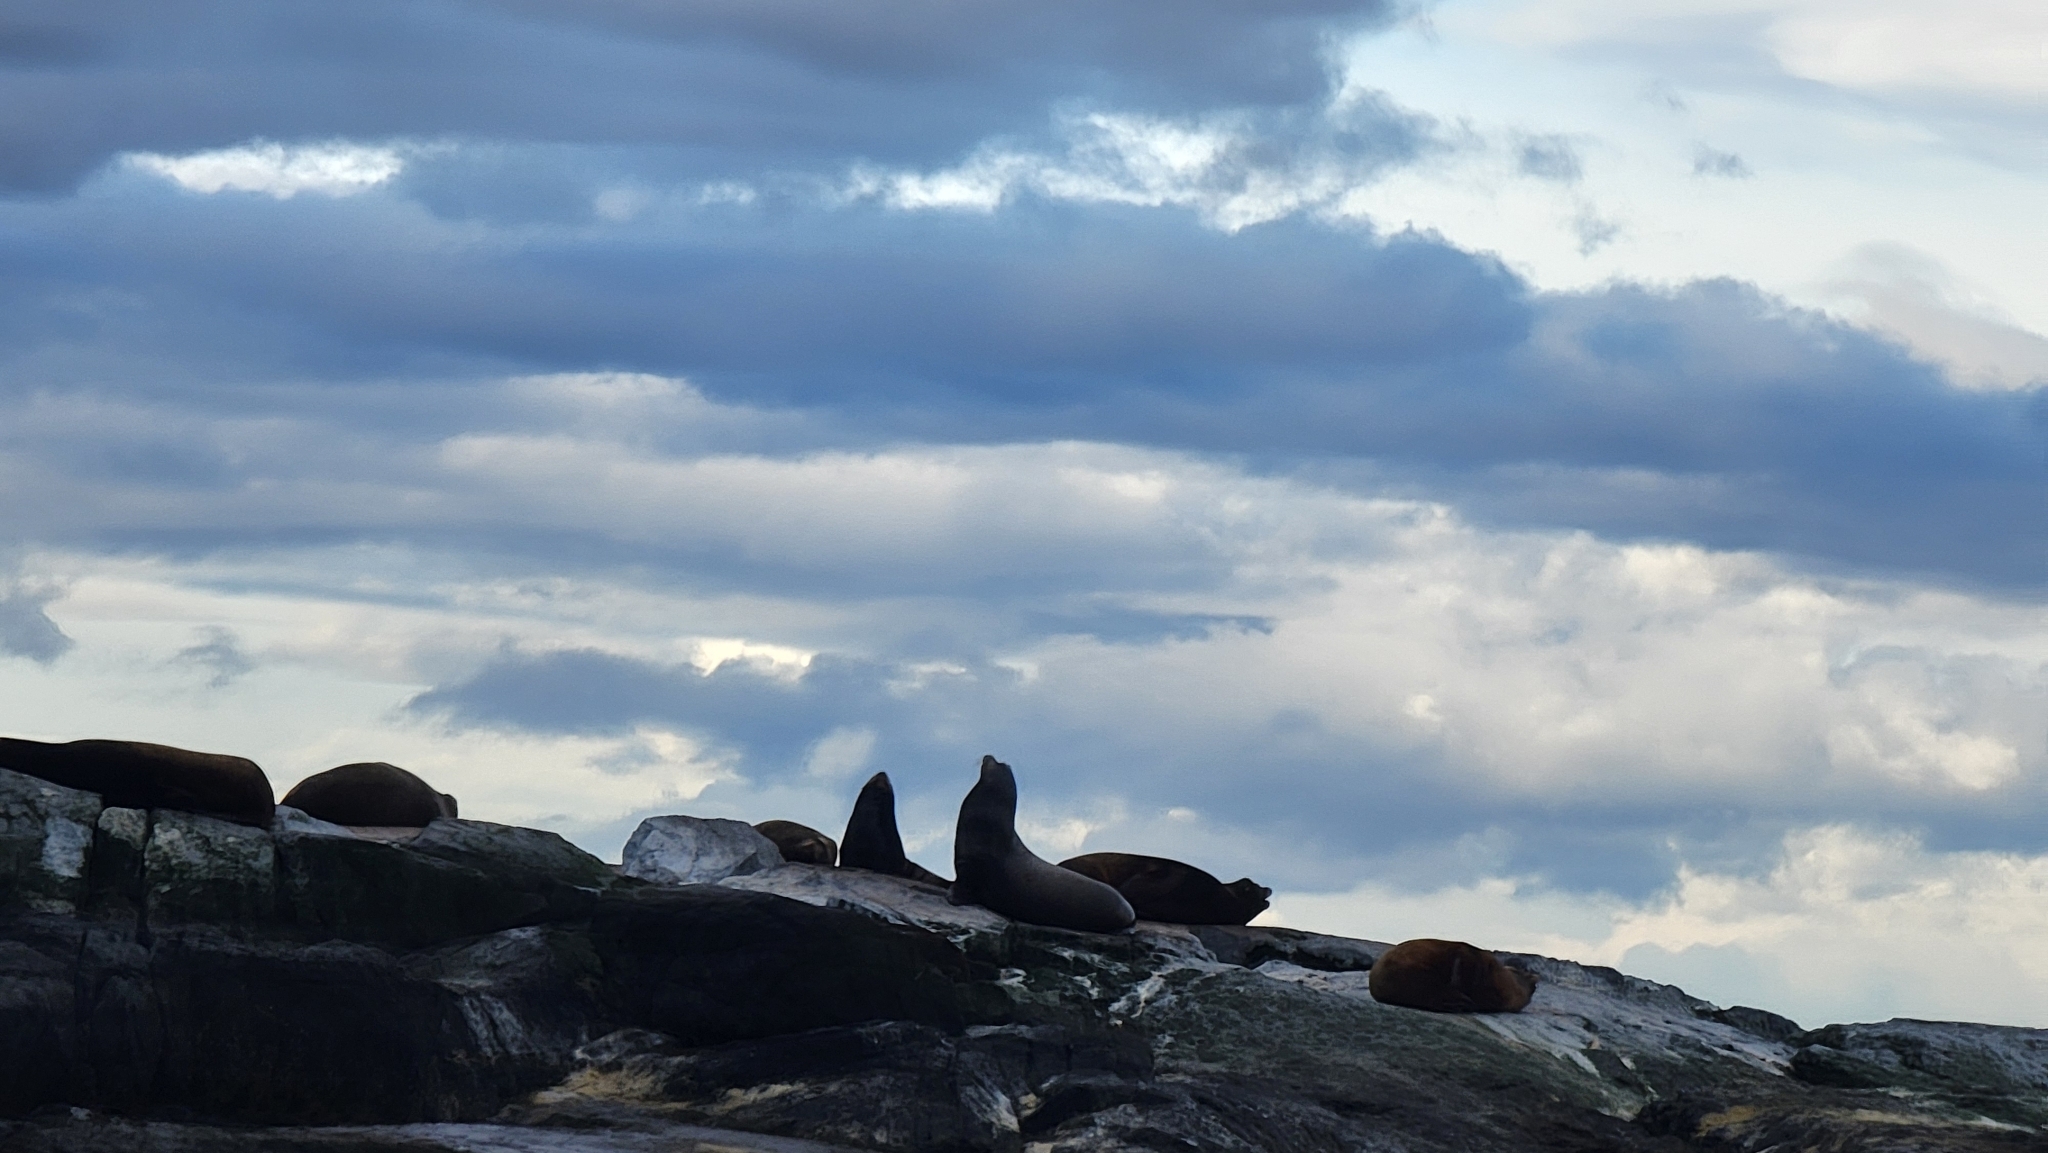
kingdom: Animalia
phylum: Chordata
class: Mammalia
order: Carnivora
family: Otariidae
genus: Zalophus
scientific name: Zalophus californianus
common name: California sea lion
